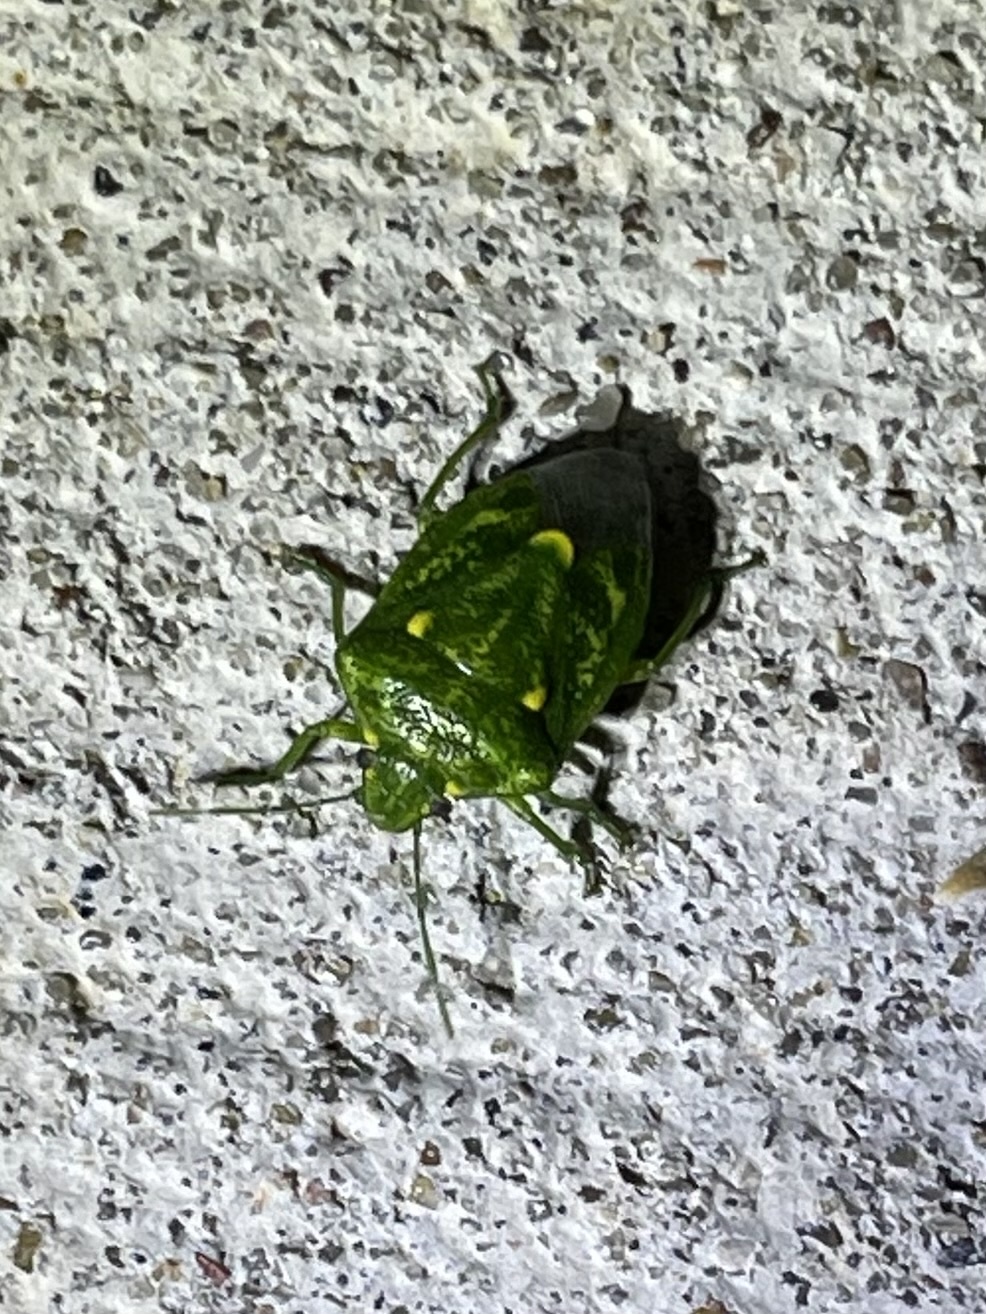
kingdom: Animalia
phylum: Arthropoda
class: Insecta
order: Hemiptera
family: Pentatomidae
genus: Banasa
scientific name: Banasa euchlora
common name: Cedar berry bug
